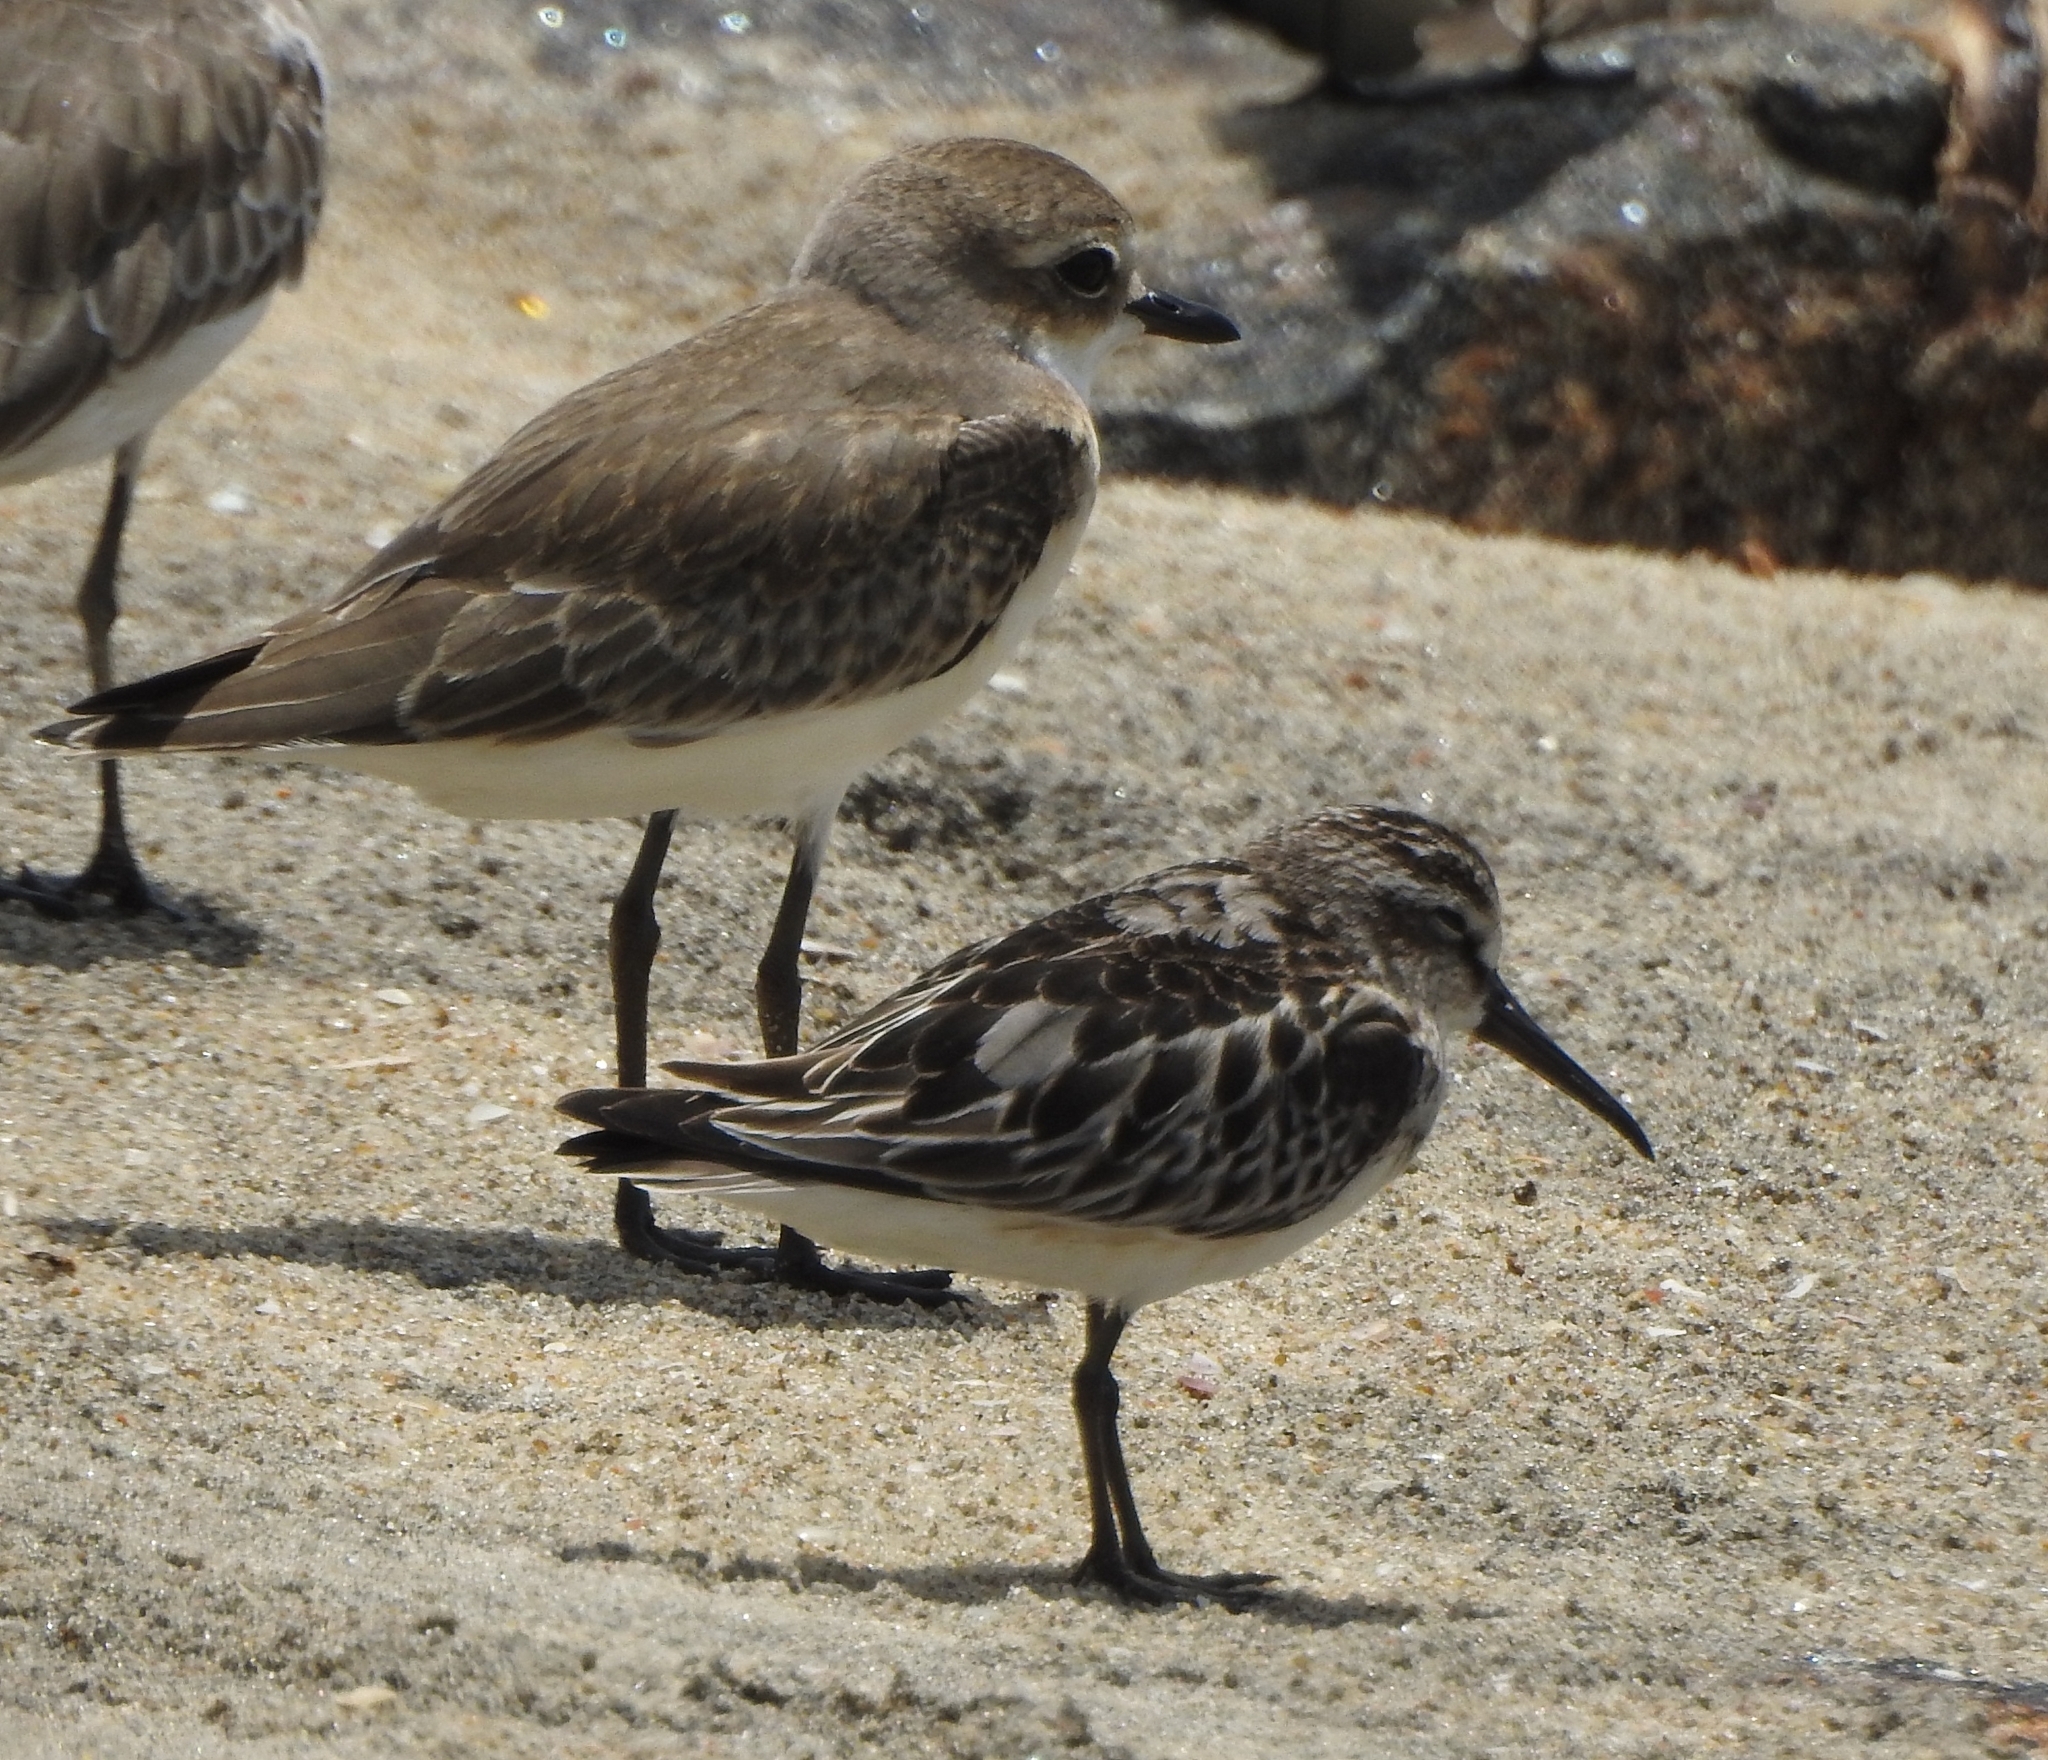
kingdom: Animalia
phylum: Chordata
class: Aves
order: Charadriiformes
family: Charadriidae
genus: Anarhynchus
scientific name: Anarhynchus
